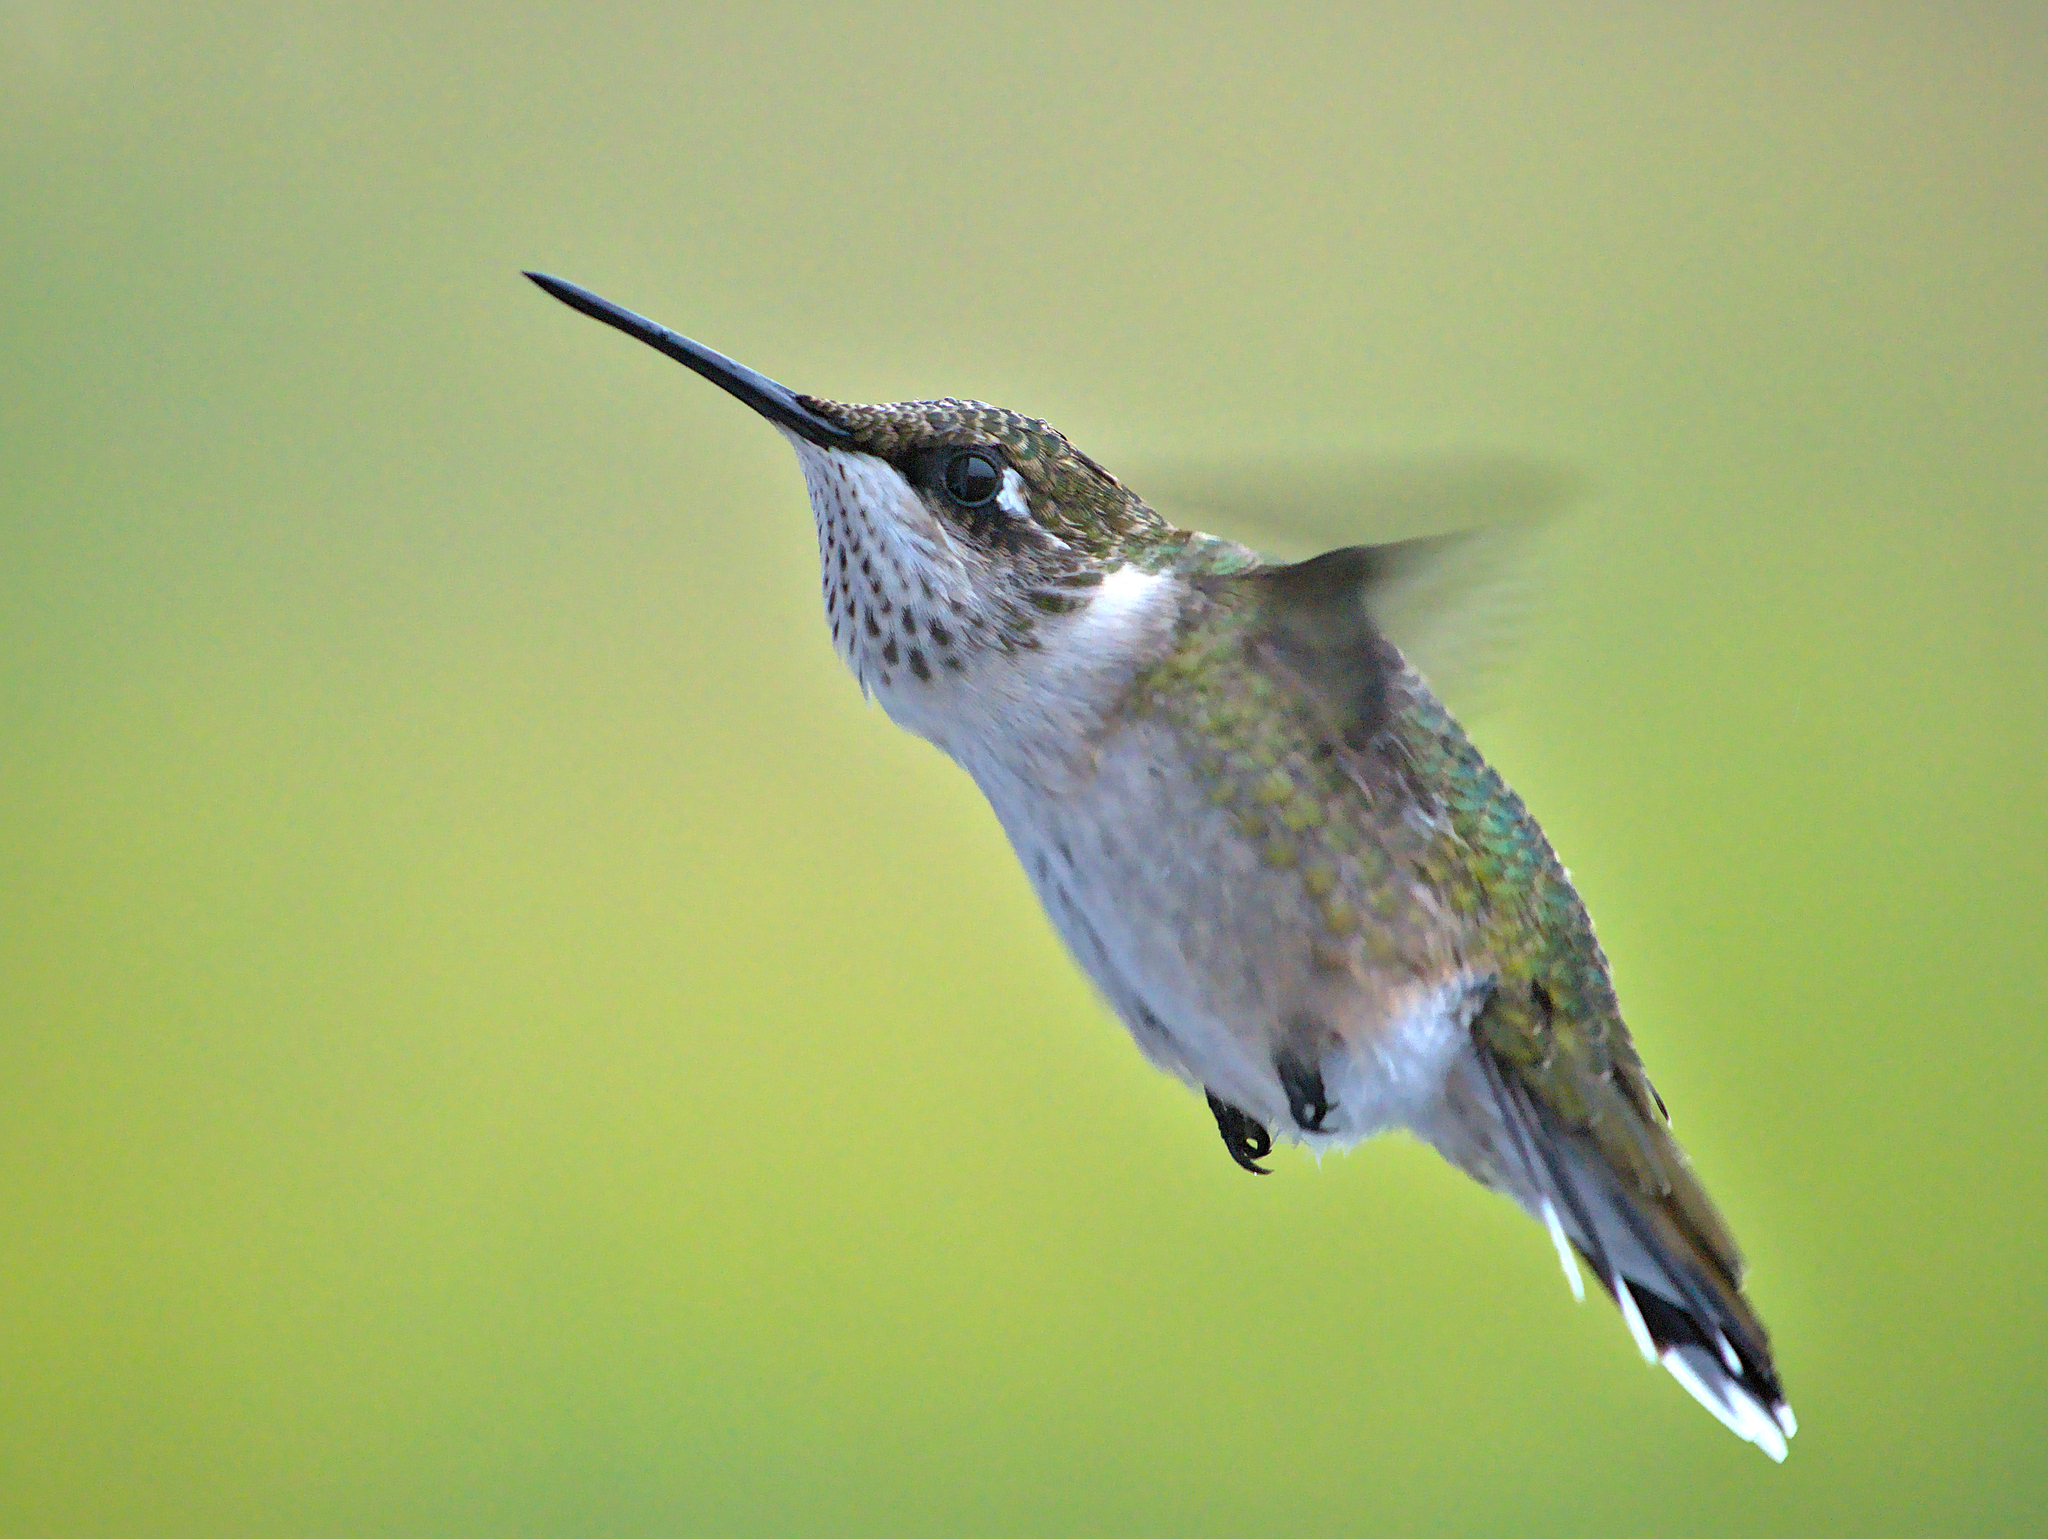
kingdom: Animalia
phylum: Chordata
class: Aves
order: Apodiformes
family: Trochilidae
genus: Archilochus
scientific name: Archilochus colubris
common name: Ruby-throated hummingbird
